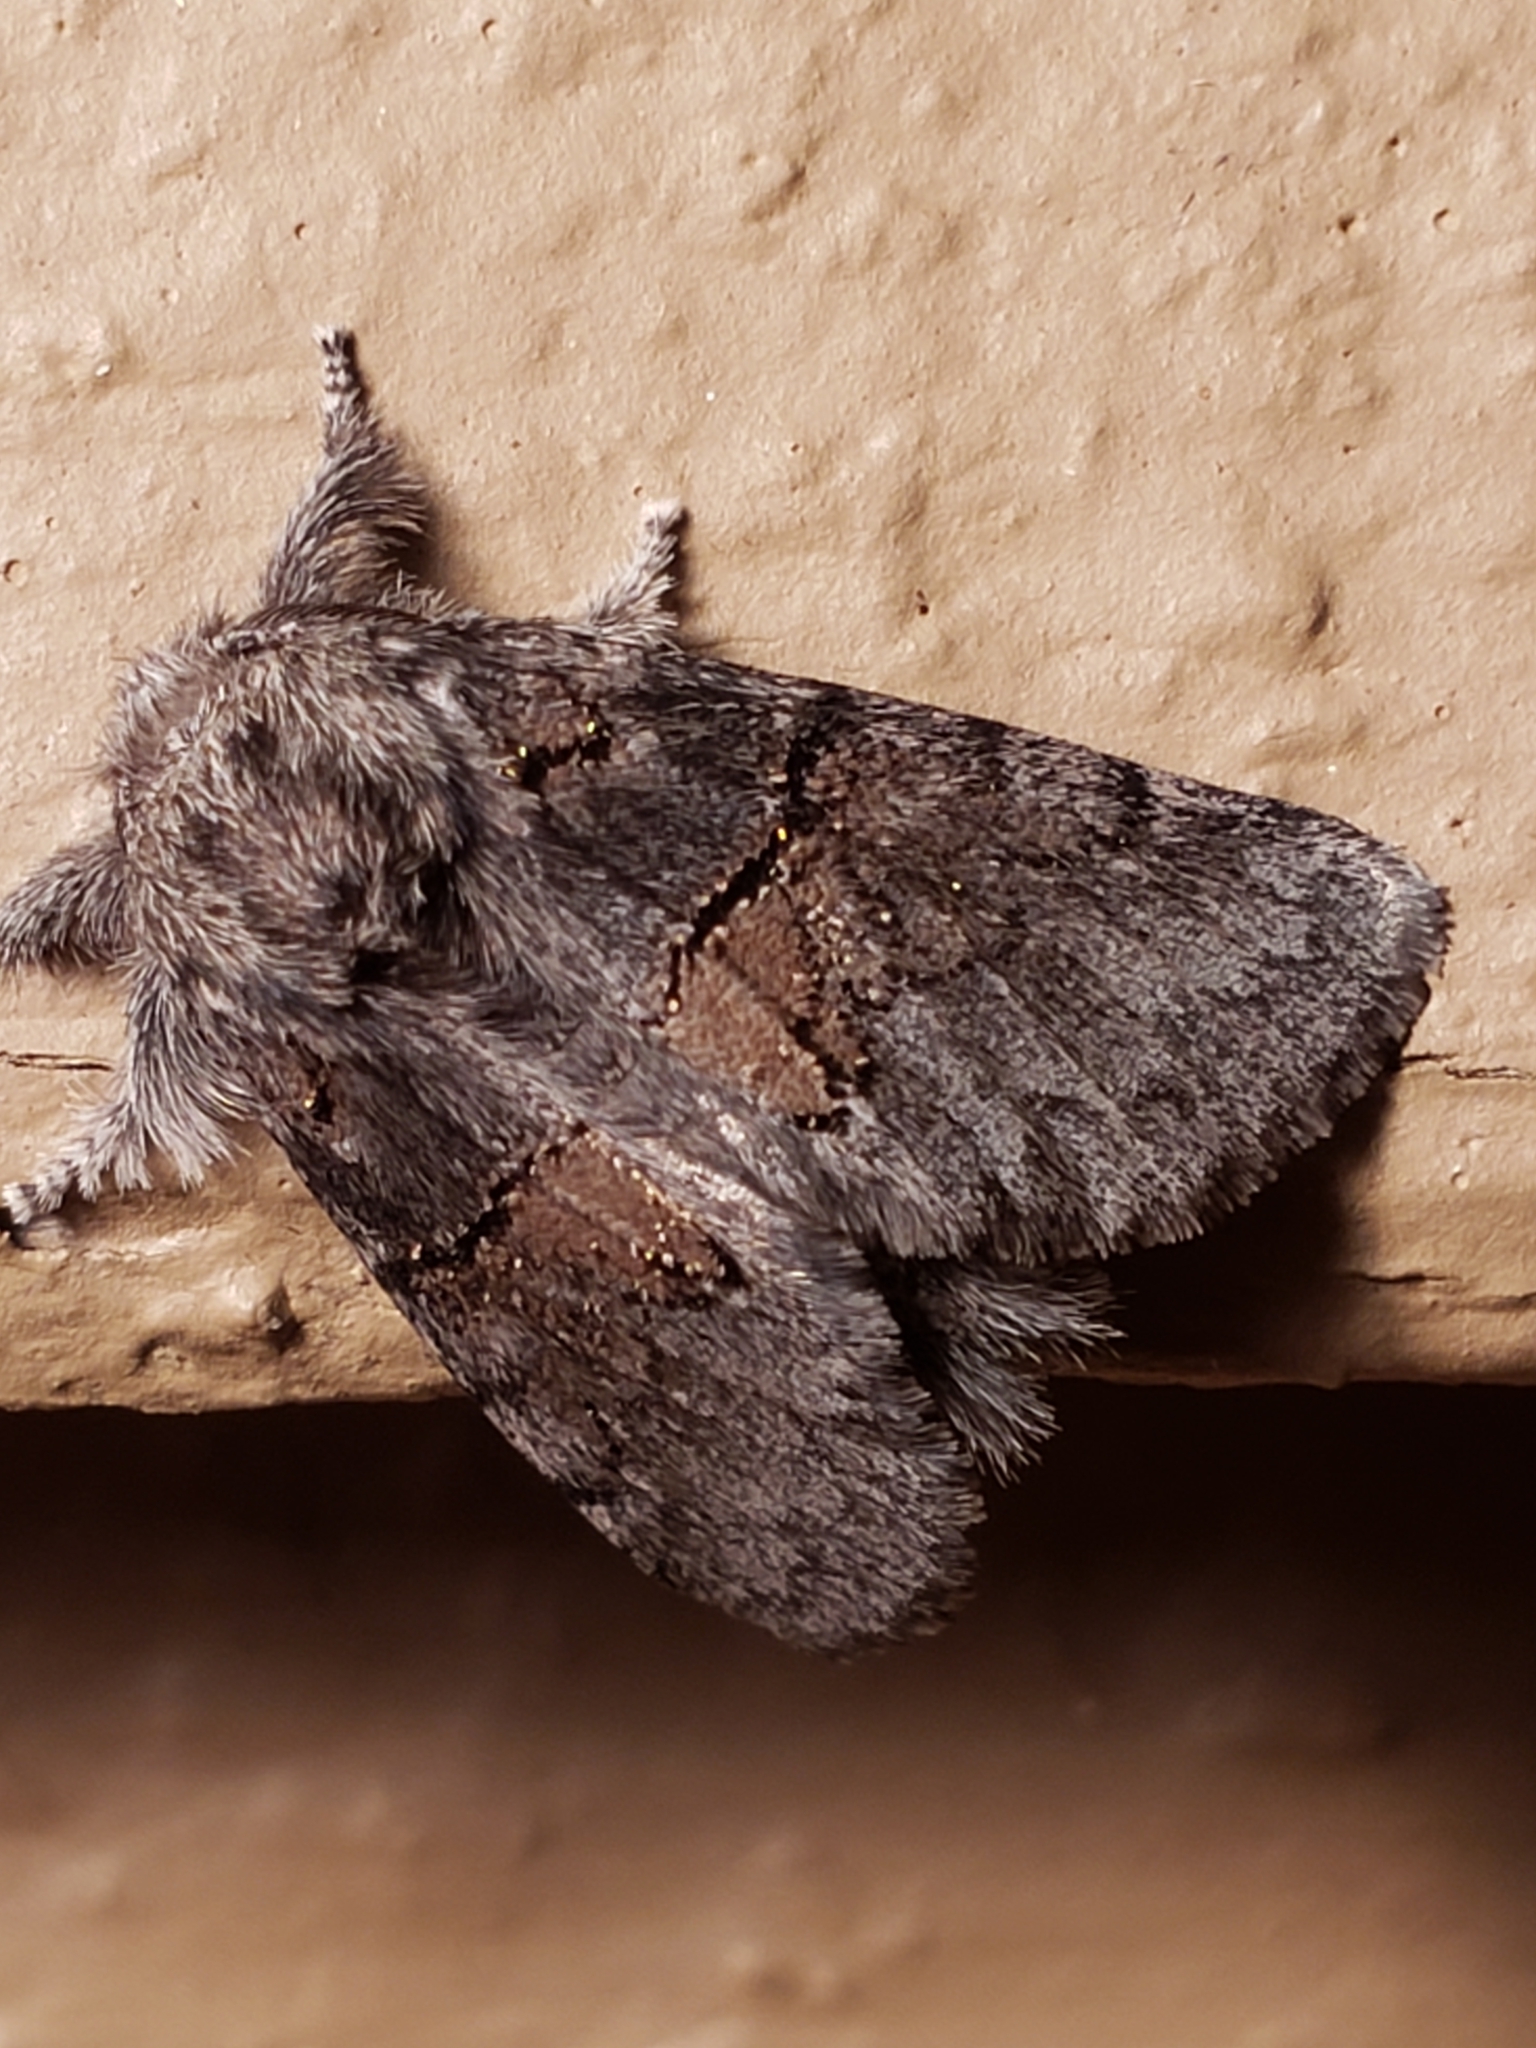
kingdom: Animalia
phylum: Arthropoda
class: Insecta
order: Lepidoptera
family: Notodontidae
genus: Gluphisia
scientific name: Gluphisia septentrionis
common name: Common gluphisia
